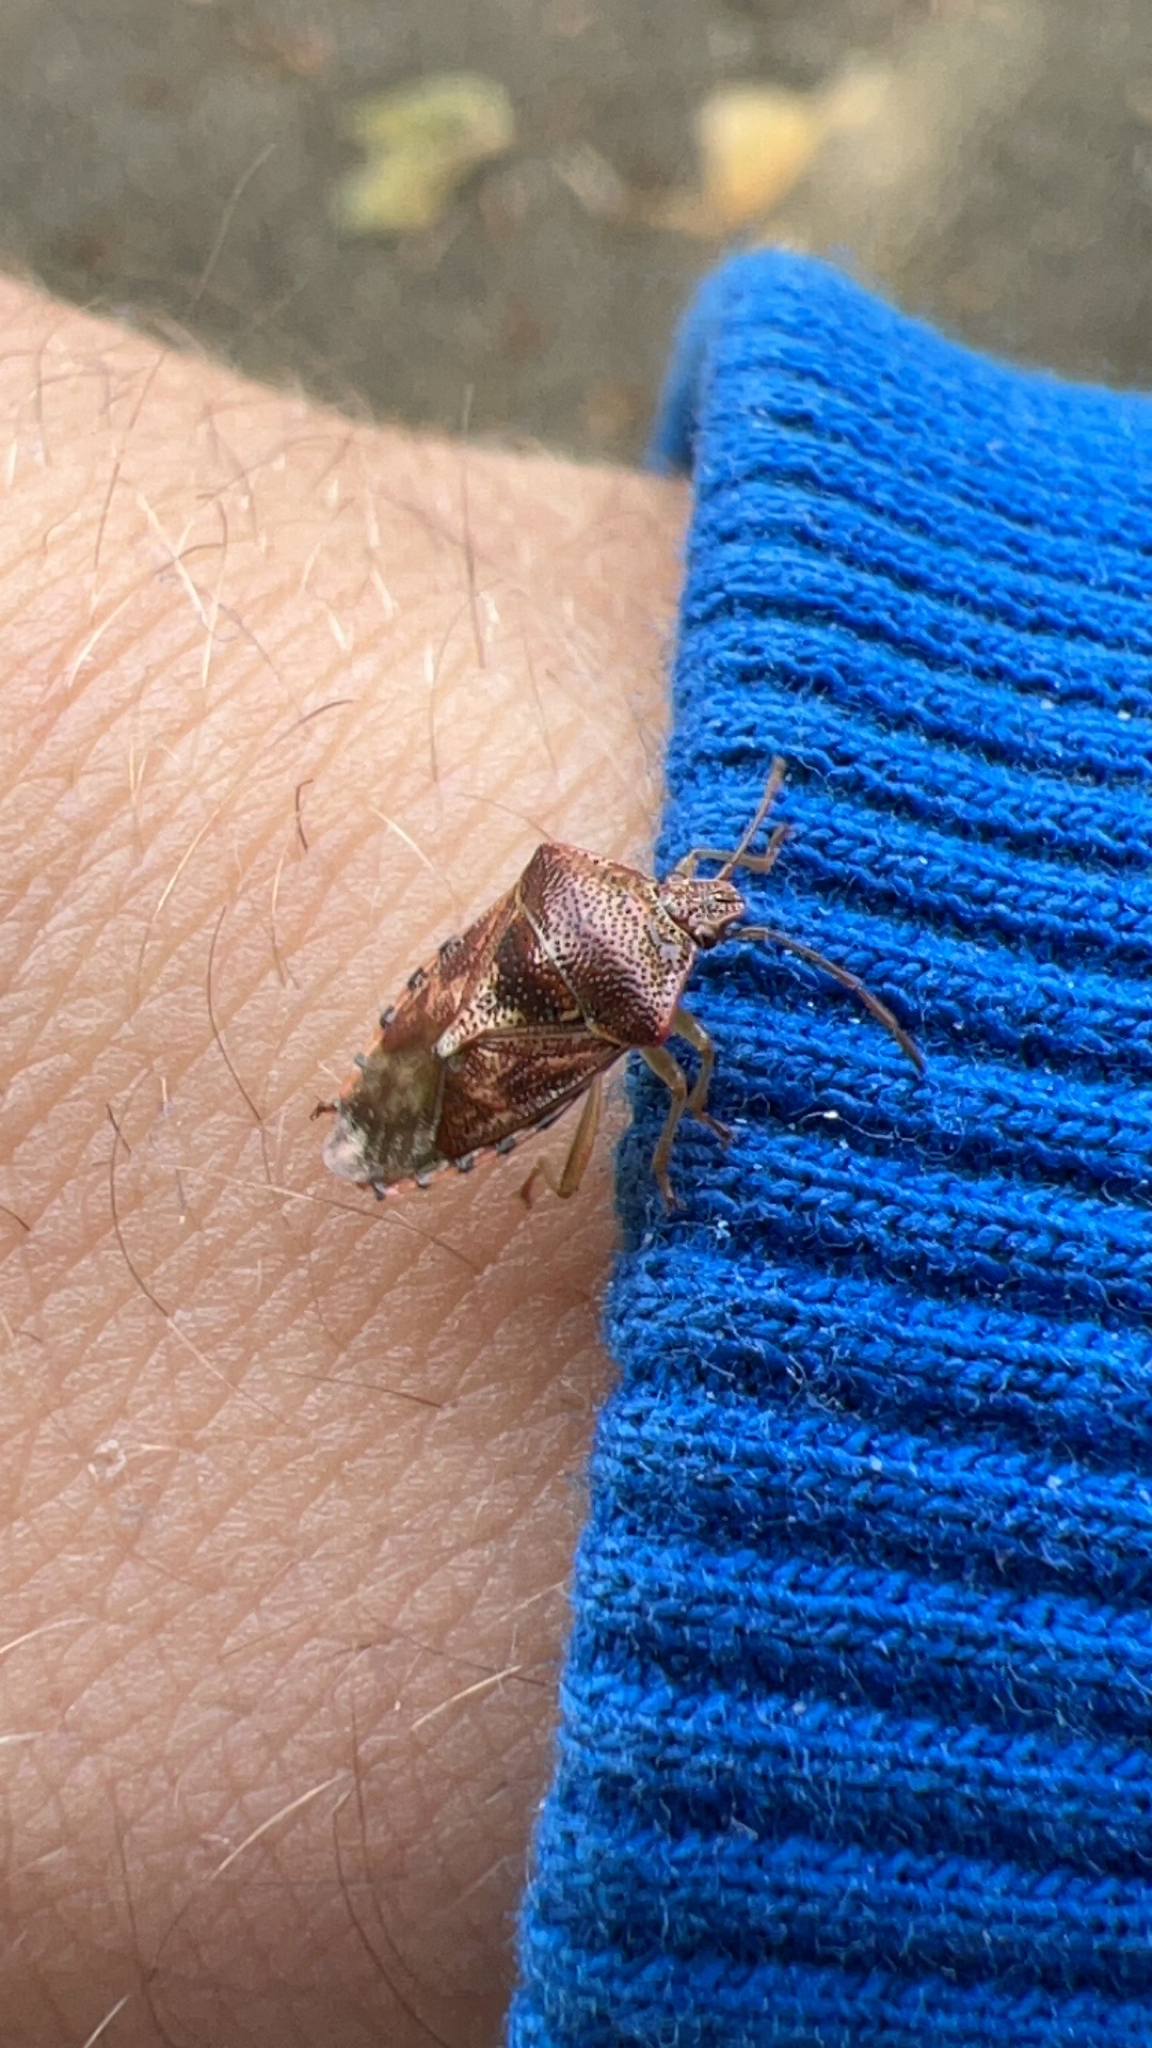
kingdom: Animalia
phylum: Arthropoda
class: Insecta
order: Hemiptera
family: Acanthosomatidae
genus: Elasmucha
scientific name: Elasmucha grisea
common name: Parent bug
